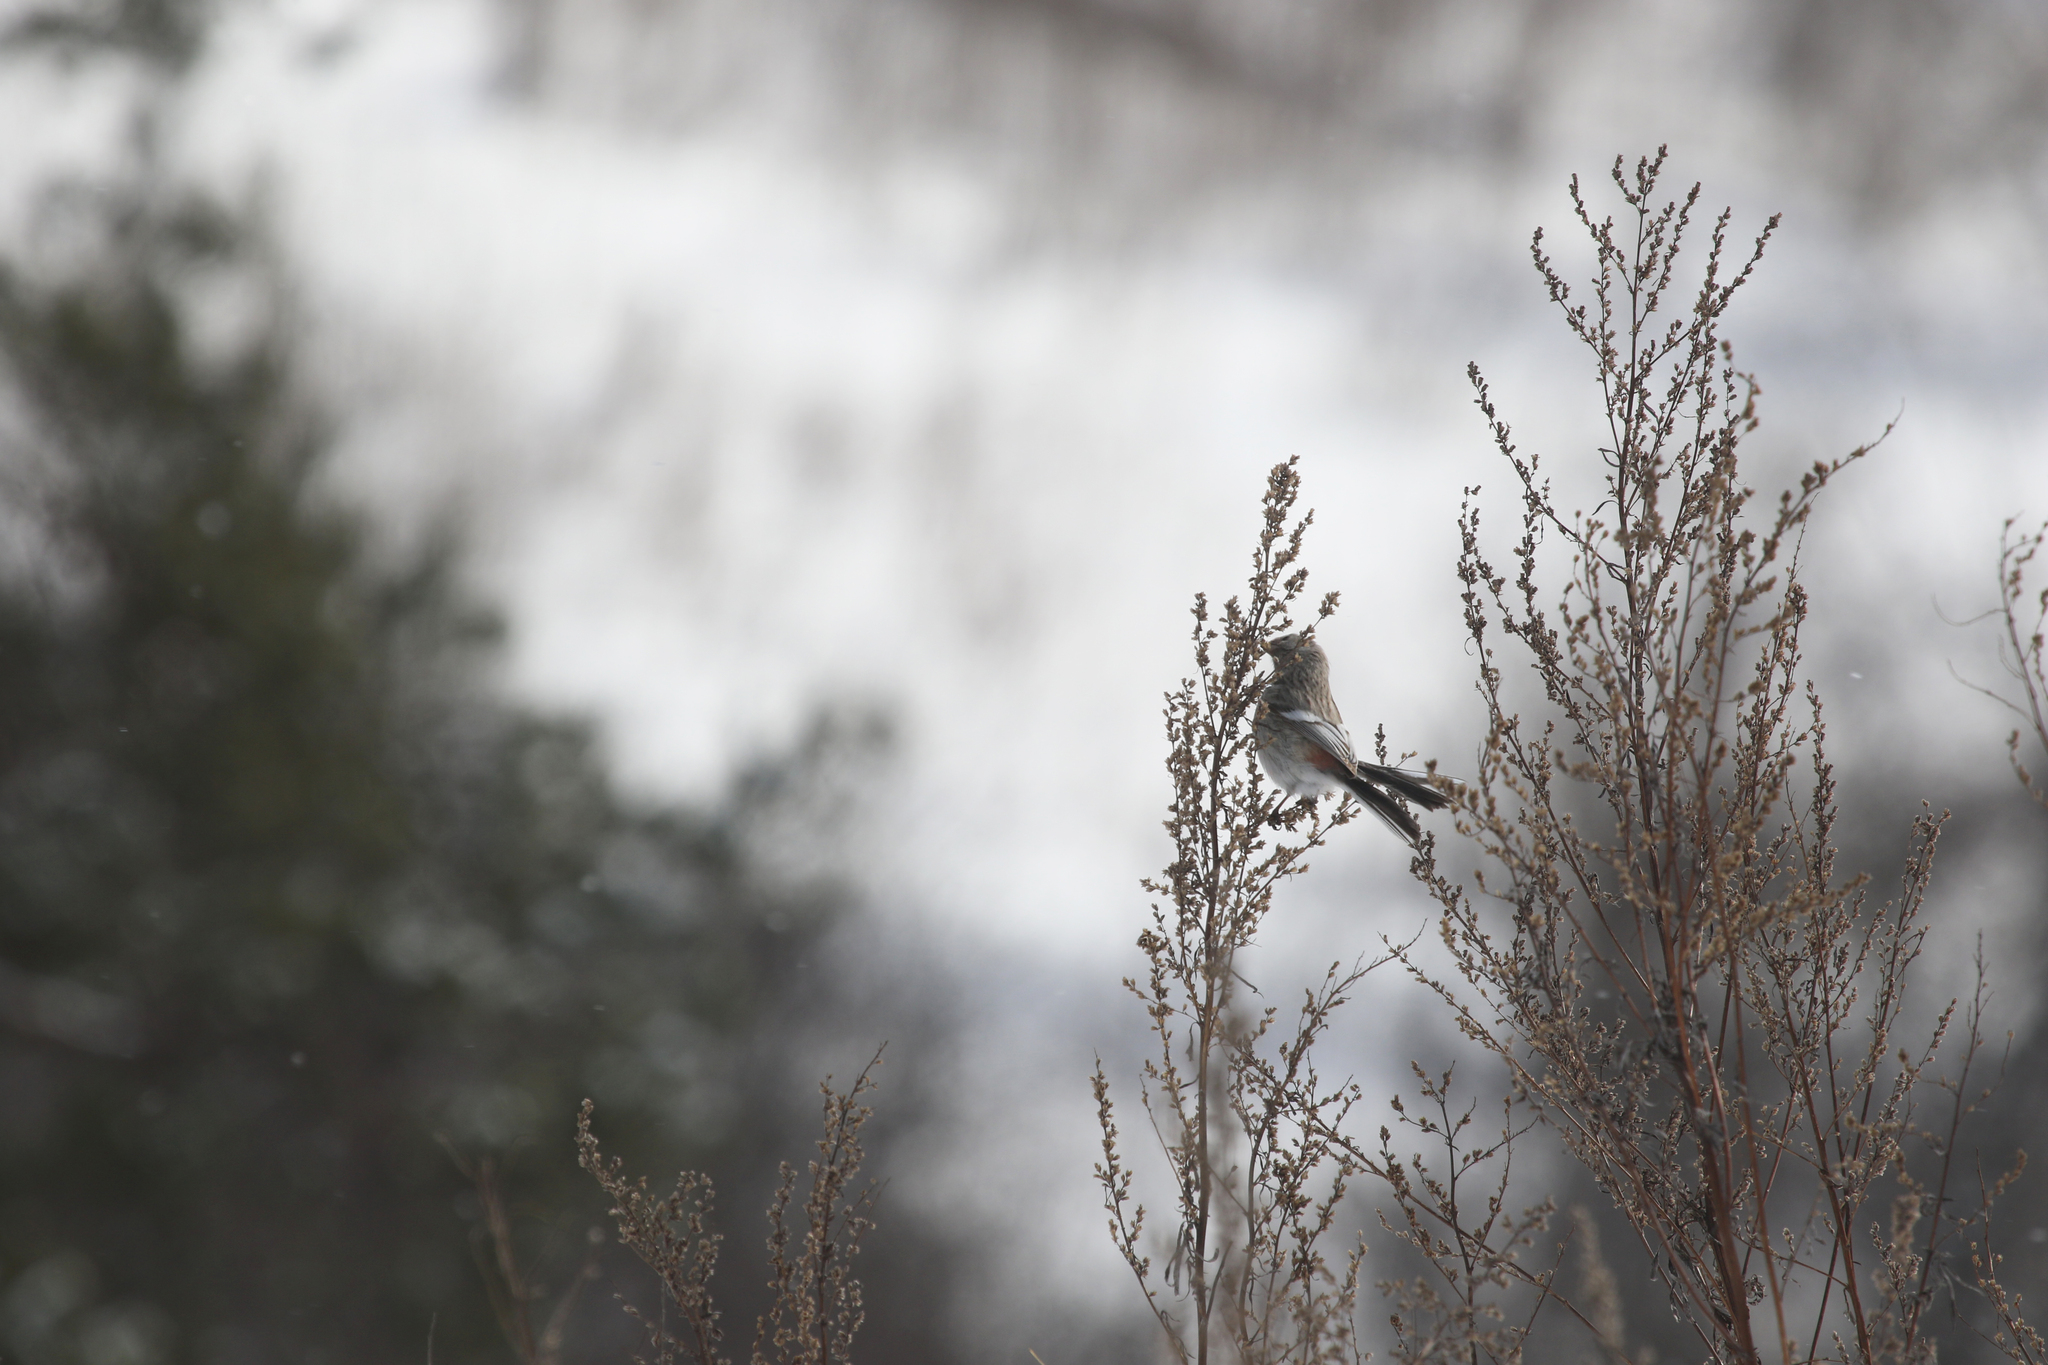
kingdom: Animalia
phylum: Chordata
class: Aves
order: Passeriformes
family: Fringillidae
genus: Carpodacus
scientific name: Carpodacus sibiricus
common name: Long-tailed rosefinch
